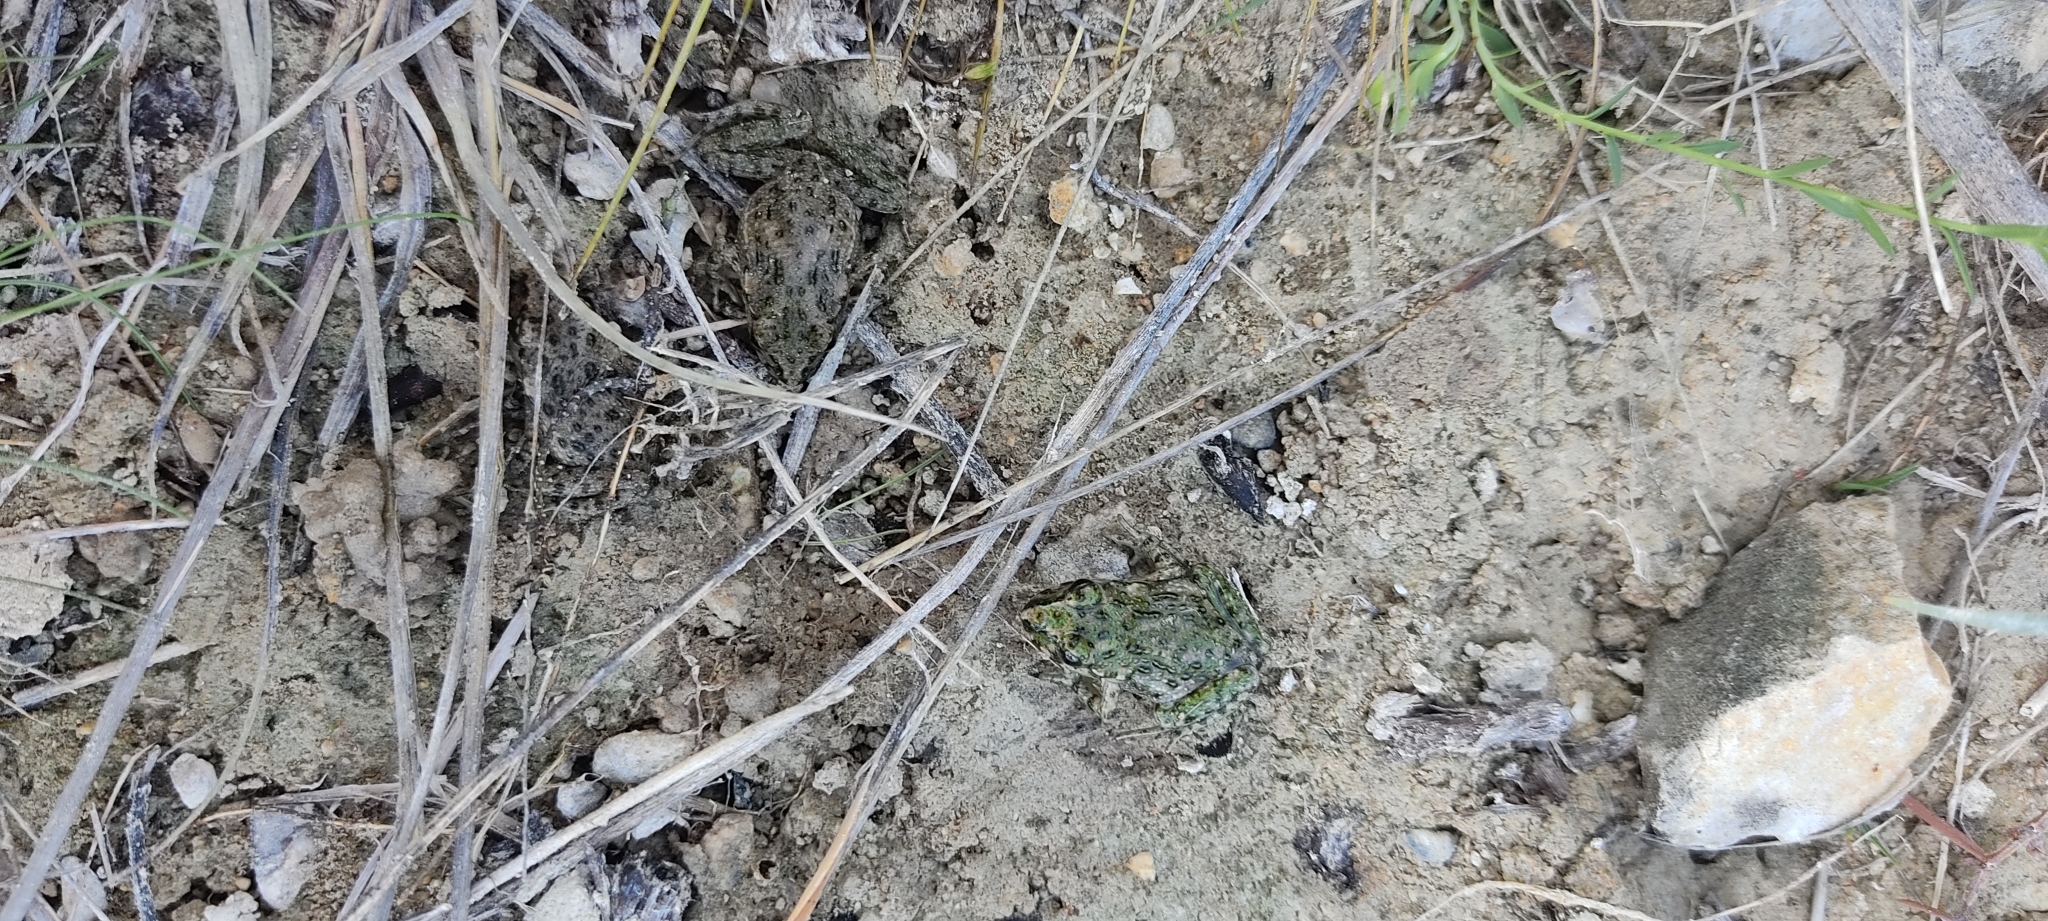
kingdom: Animalia
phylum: Chordata
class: Amphibia
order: Anura
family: Pelodytidae
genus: Pelodytes
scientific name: Pelodytes punctatus
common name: Parsley frog
